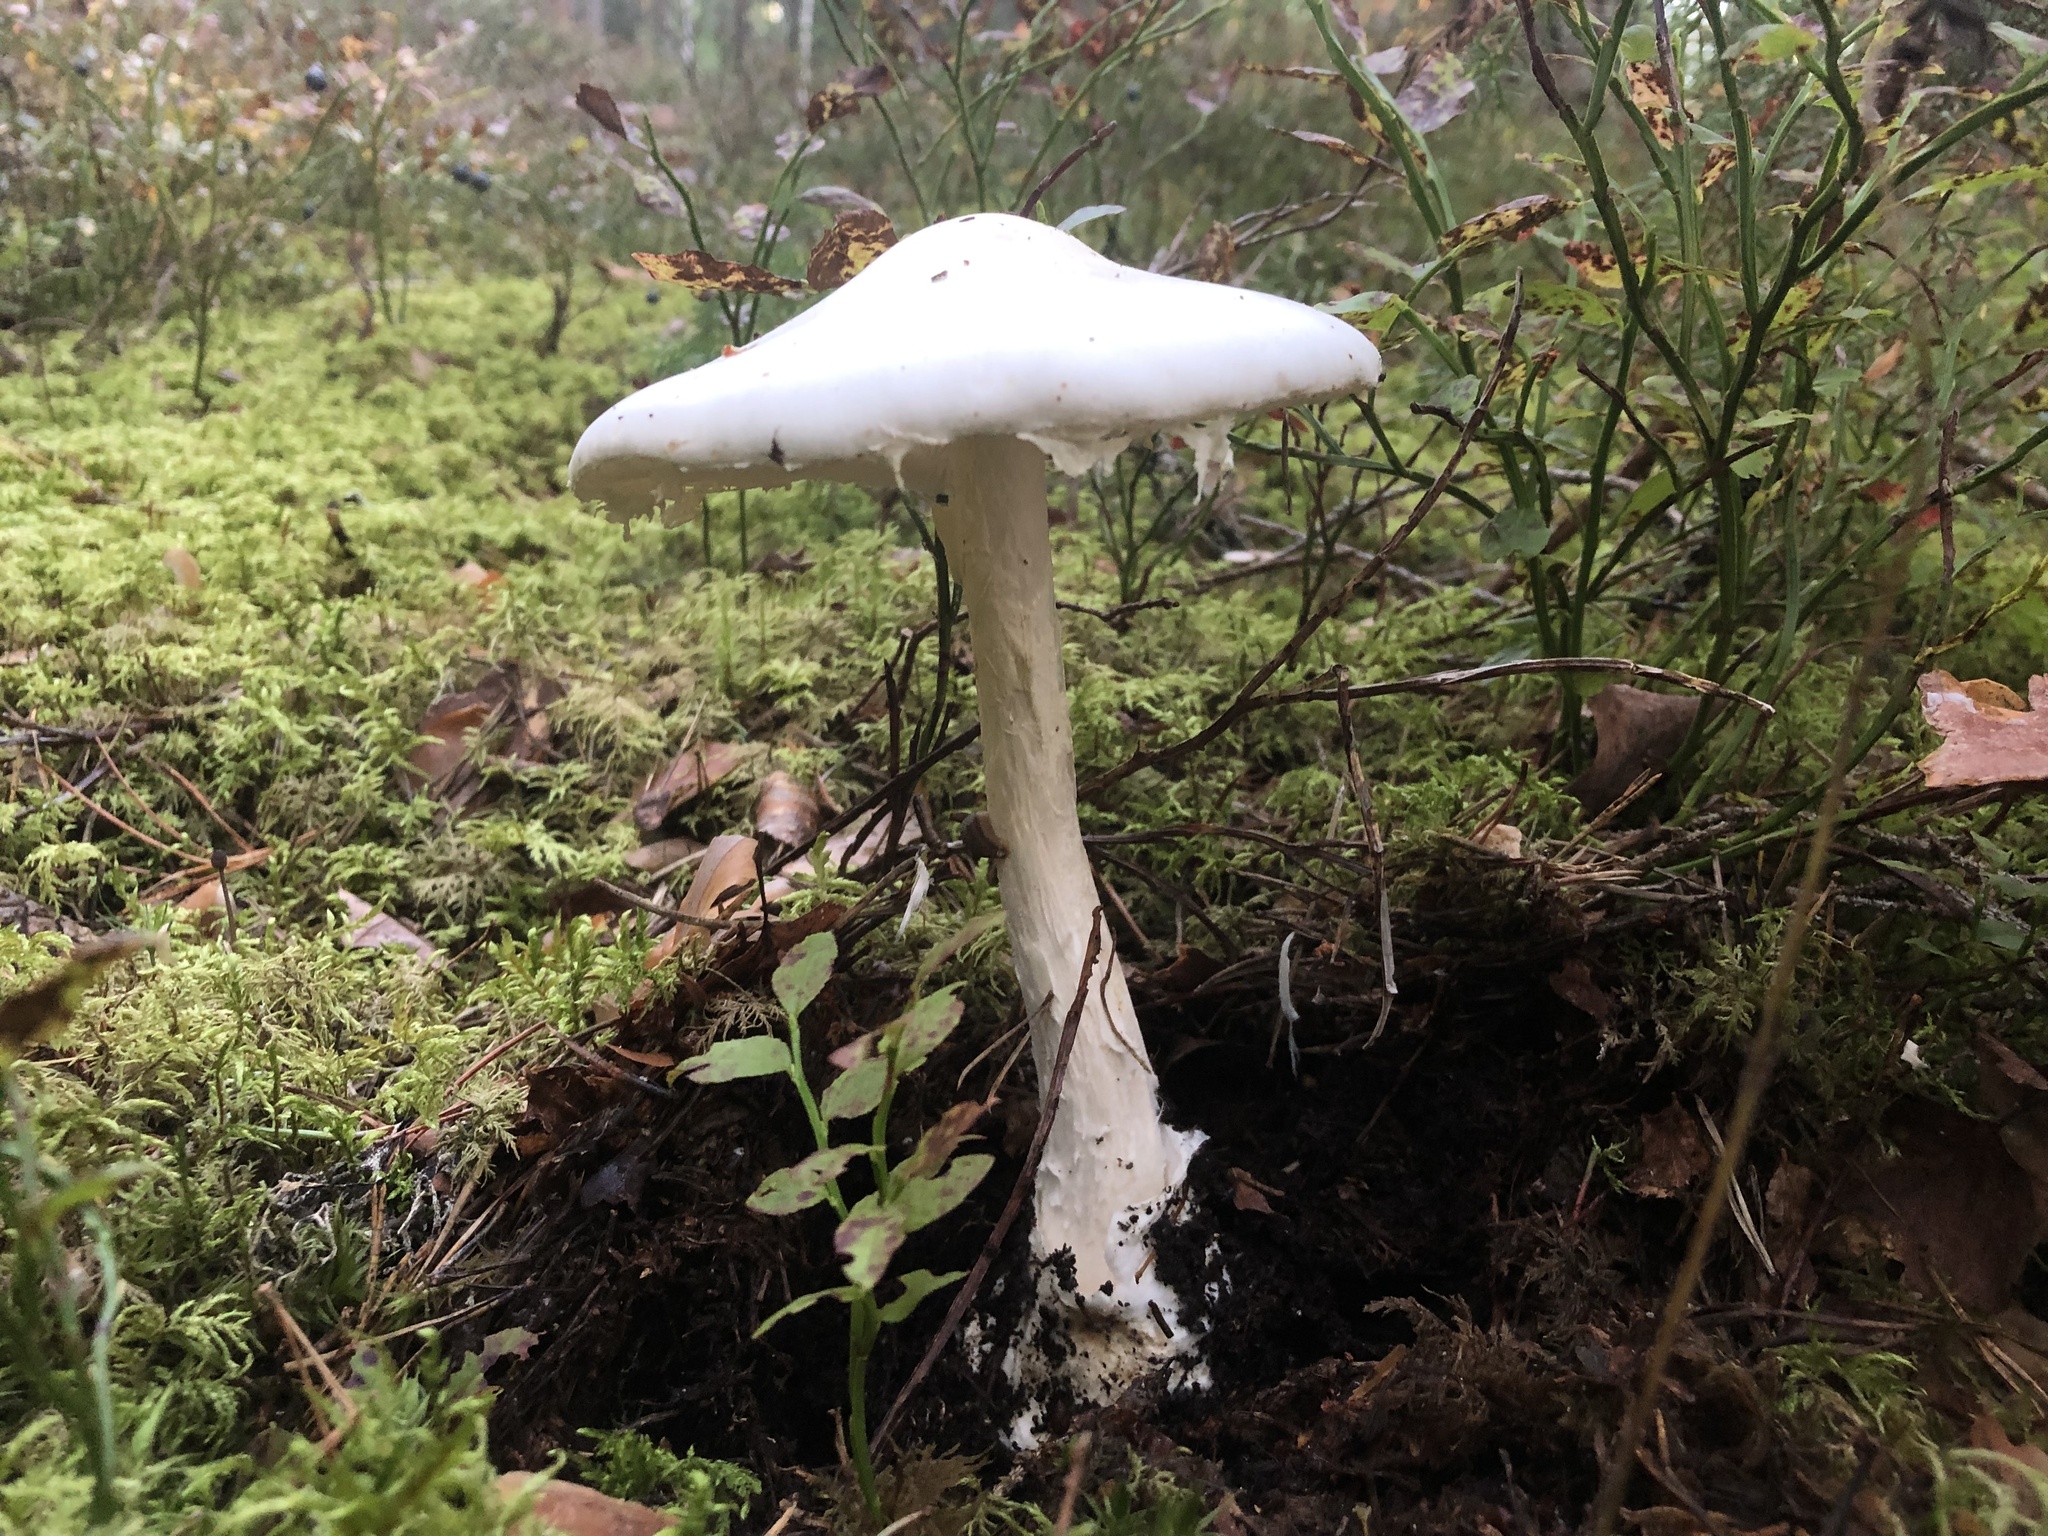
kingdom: Fungi
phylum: Basidiomycota
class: Agaricomycetes
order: Agaricales
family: Amanitaceae
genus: Amanita
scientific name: Amanita virosa
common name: Destroying angel
